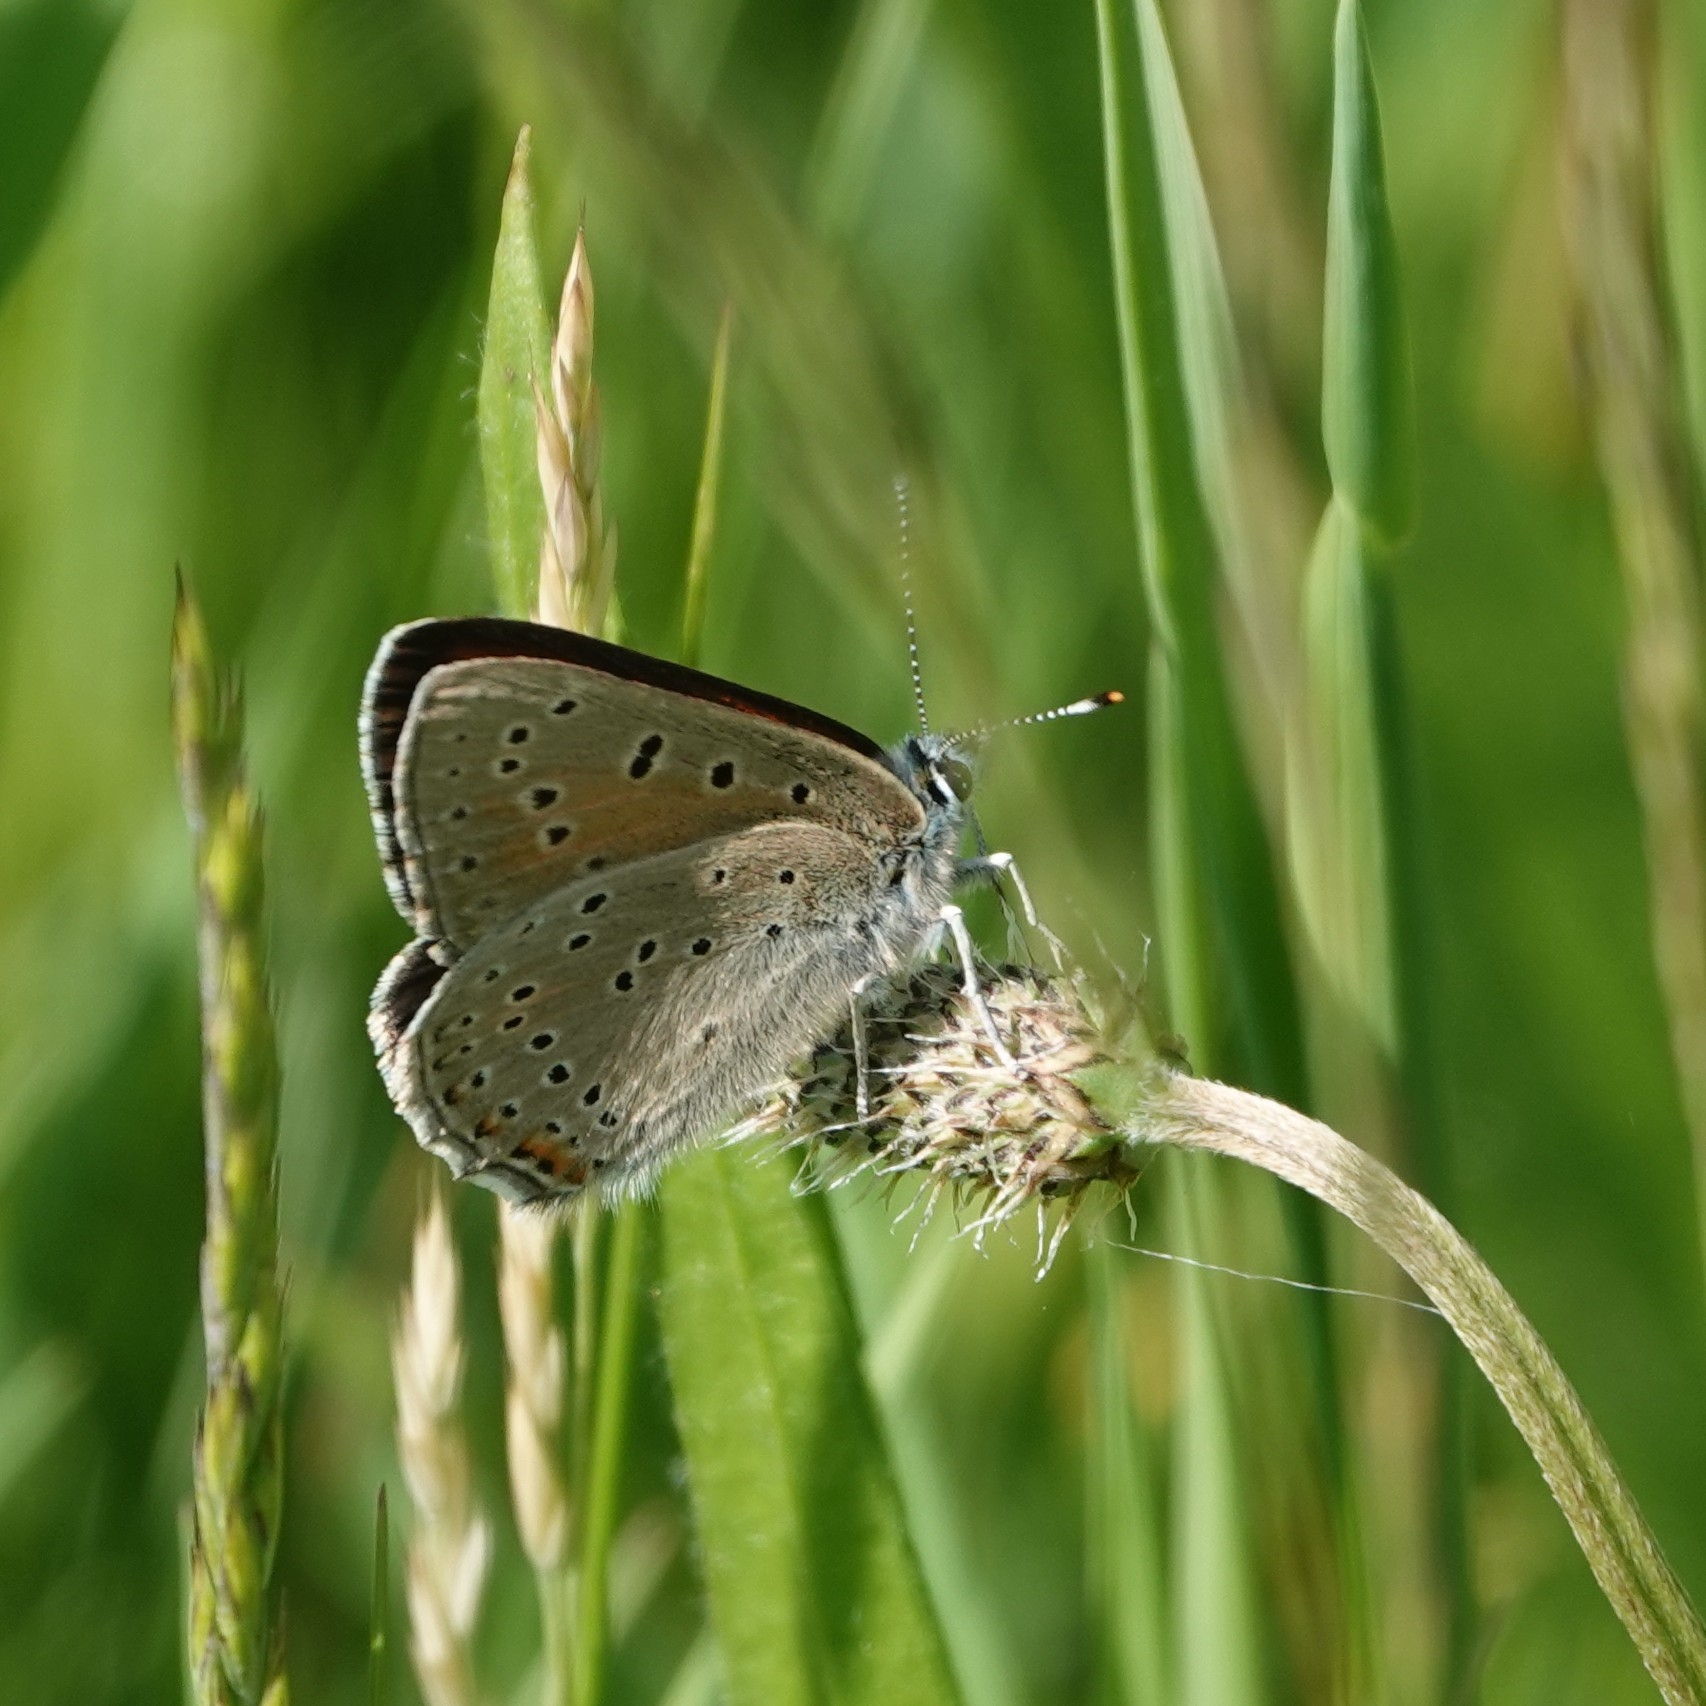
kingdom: Animalia
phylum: Arthropoda
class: Insecta
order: Lepidoptera
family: Lycaenidae
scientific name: Lycaenidae
